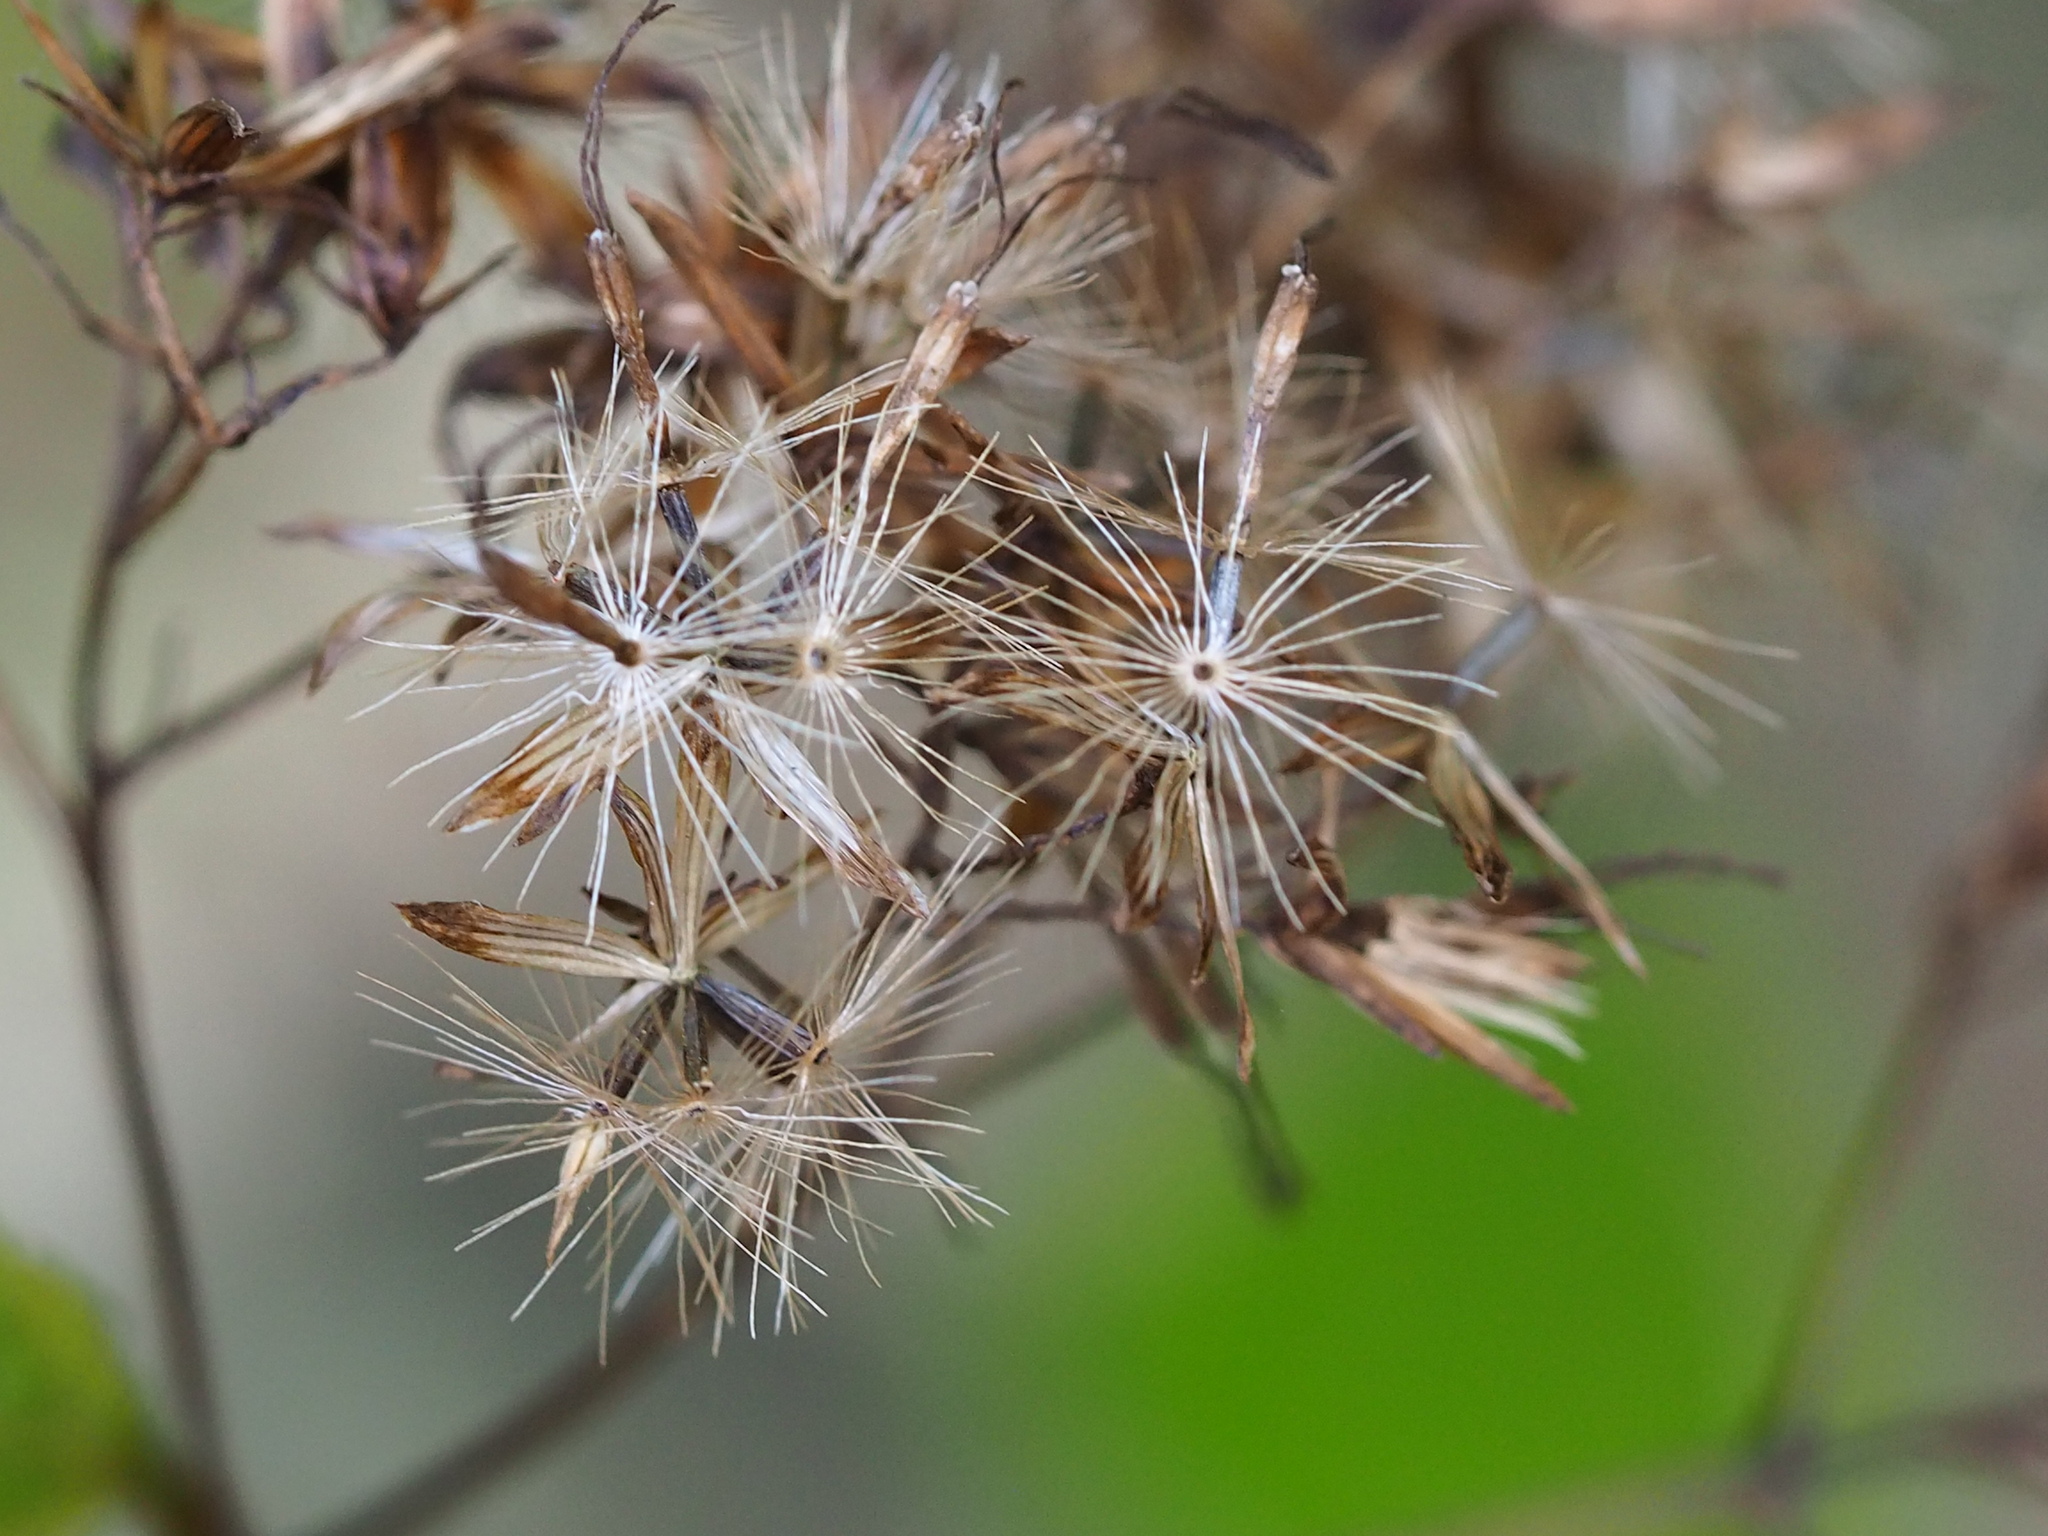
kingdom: Plantae
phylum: Tracheophyta
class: Magnoliopsida
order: Asterales
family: Asteraceae
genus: Eupatorium
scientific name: Eupatorium tashiroi
